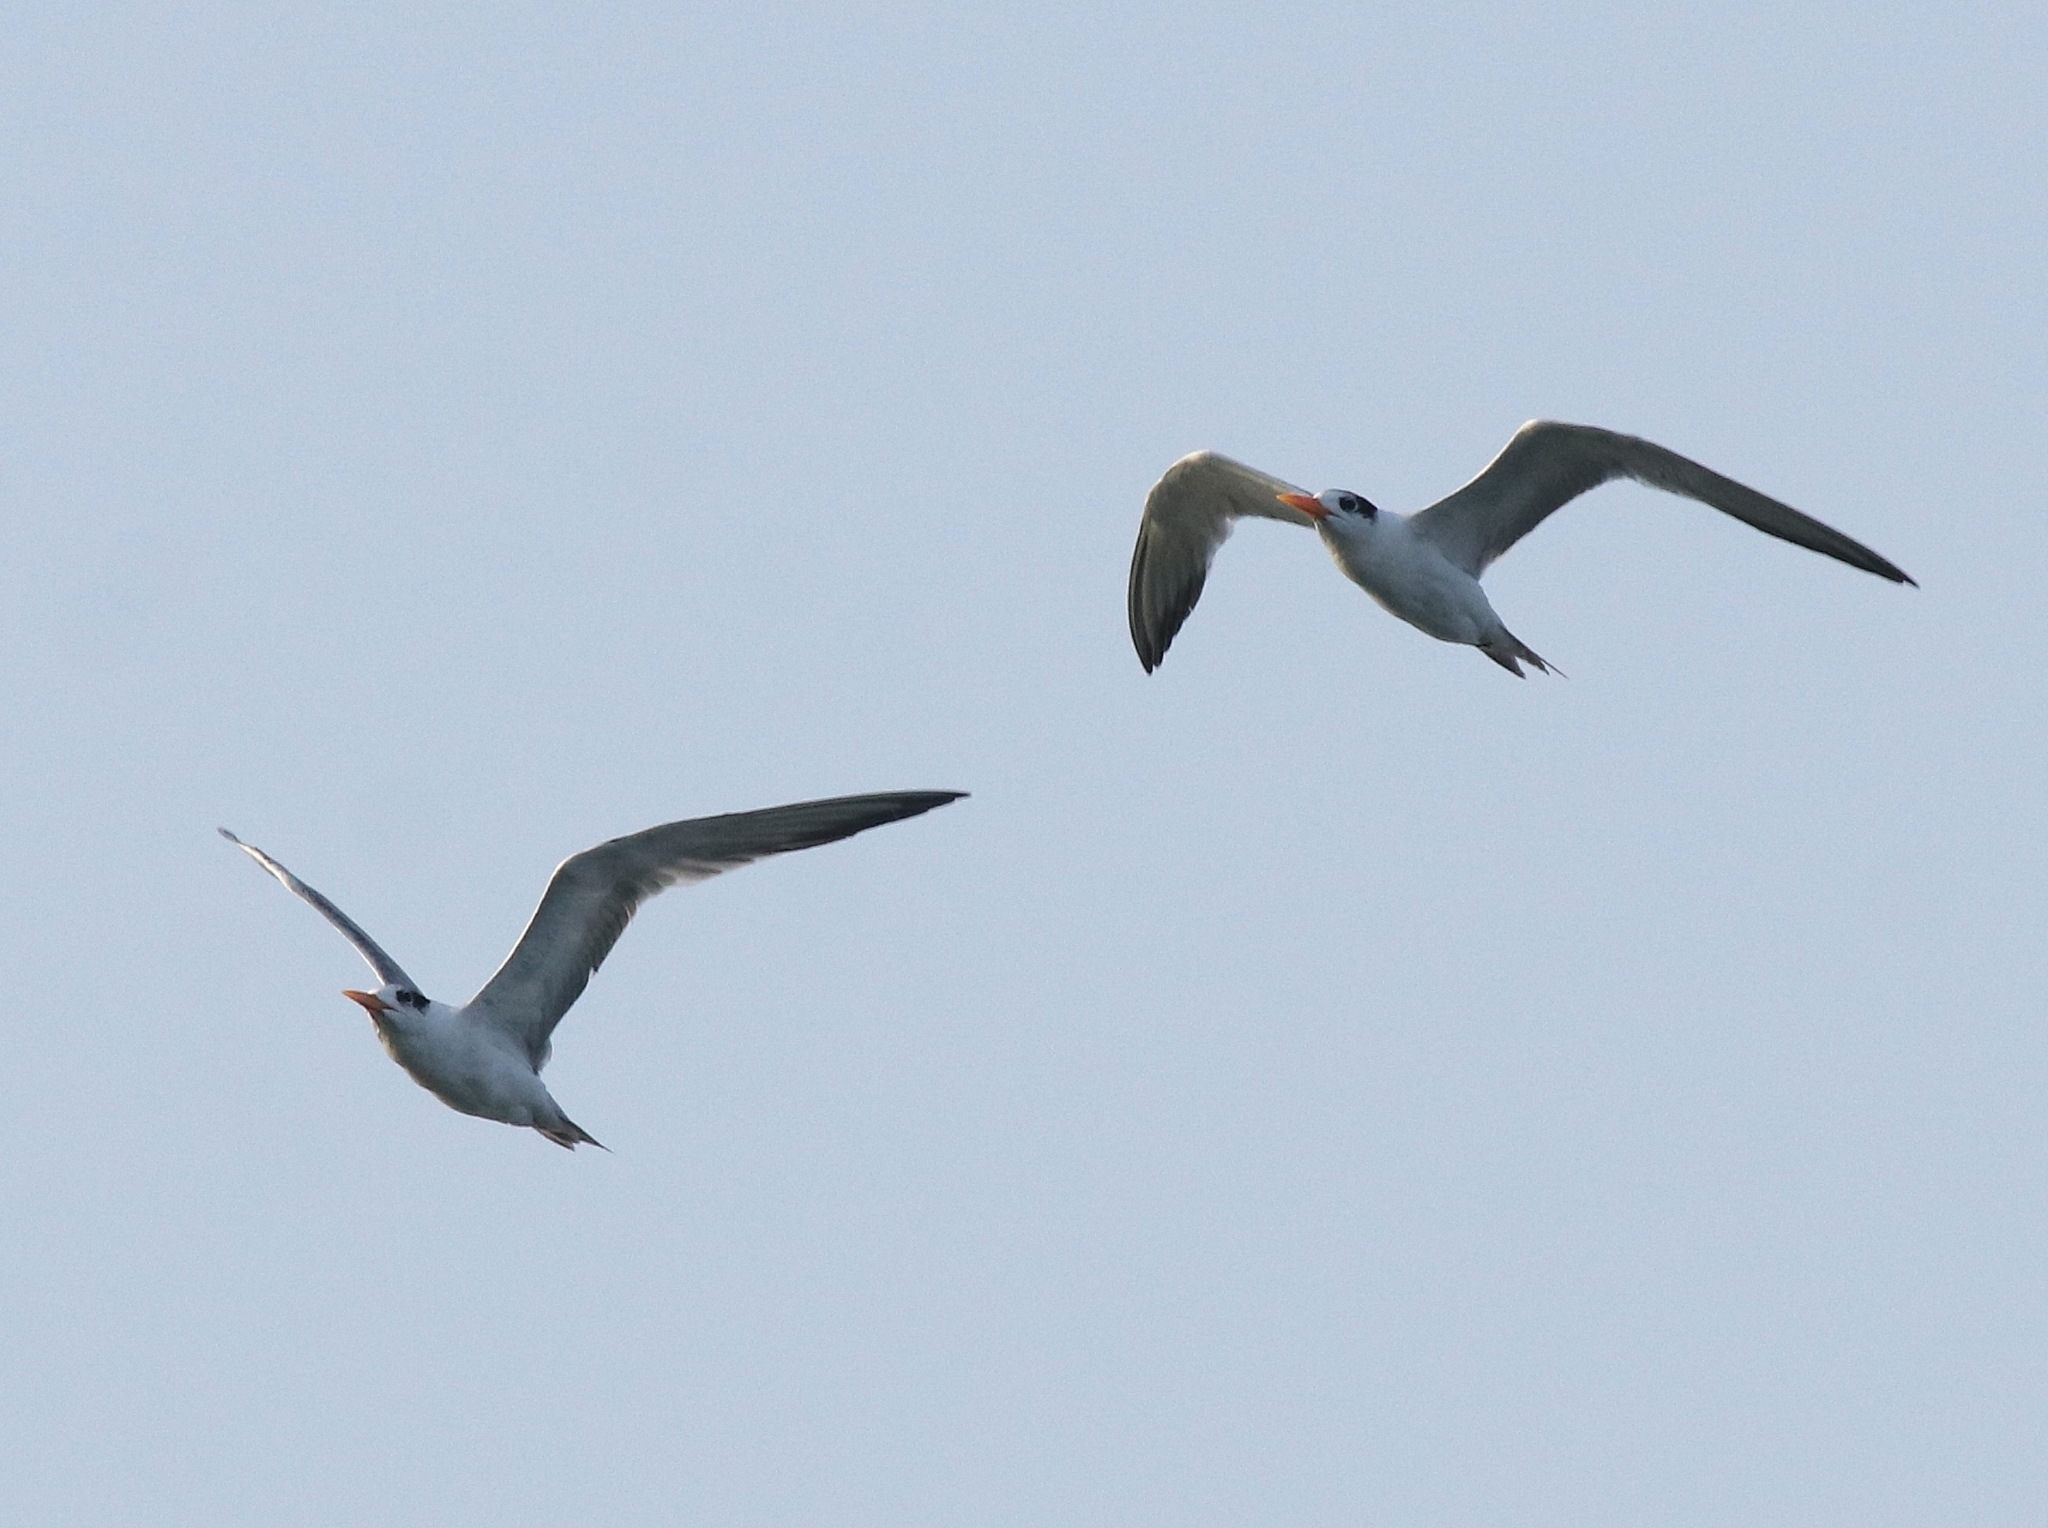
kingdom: Animalia
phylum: Chordata
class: Aves
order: Charadriiformes
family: Laridae
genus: Thalasseus
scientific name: Thalasseus bengalensis
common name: Lesser crested tern
